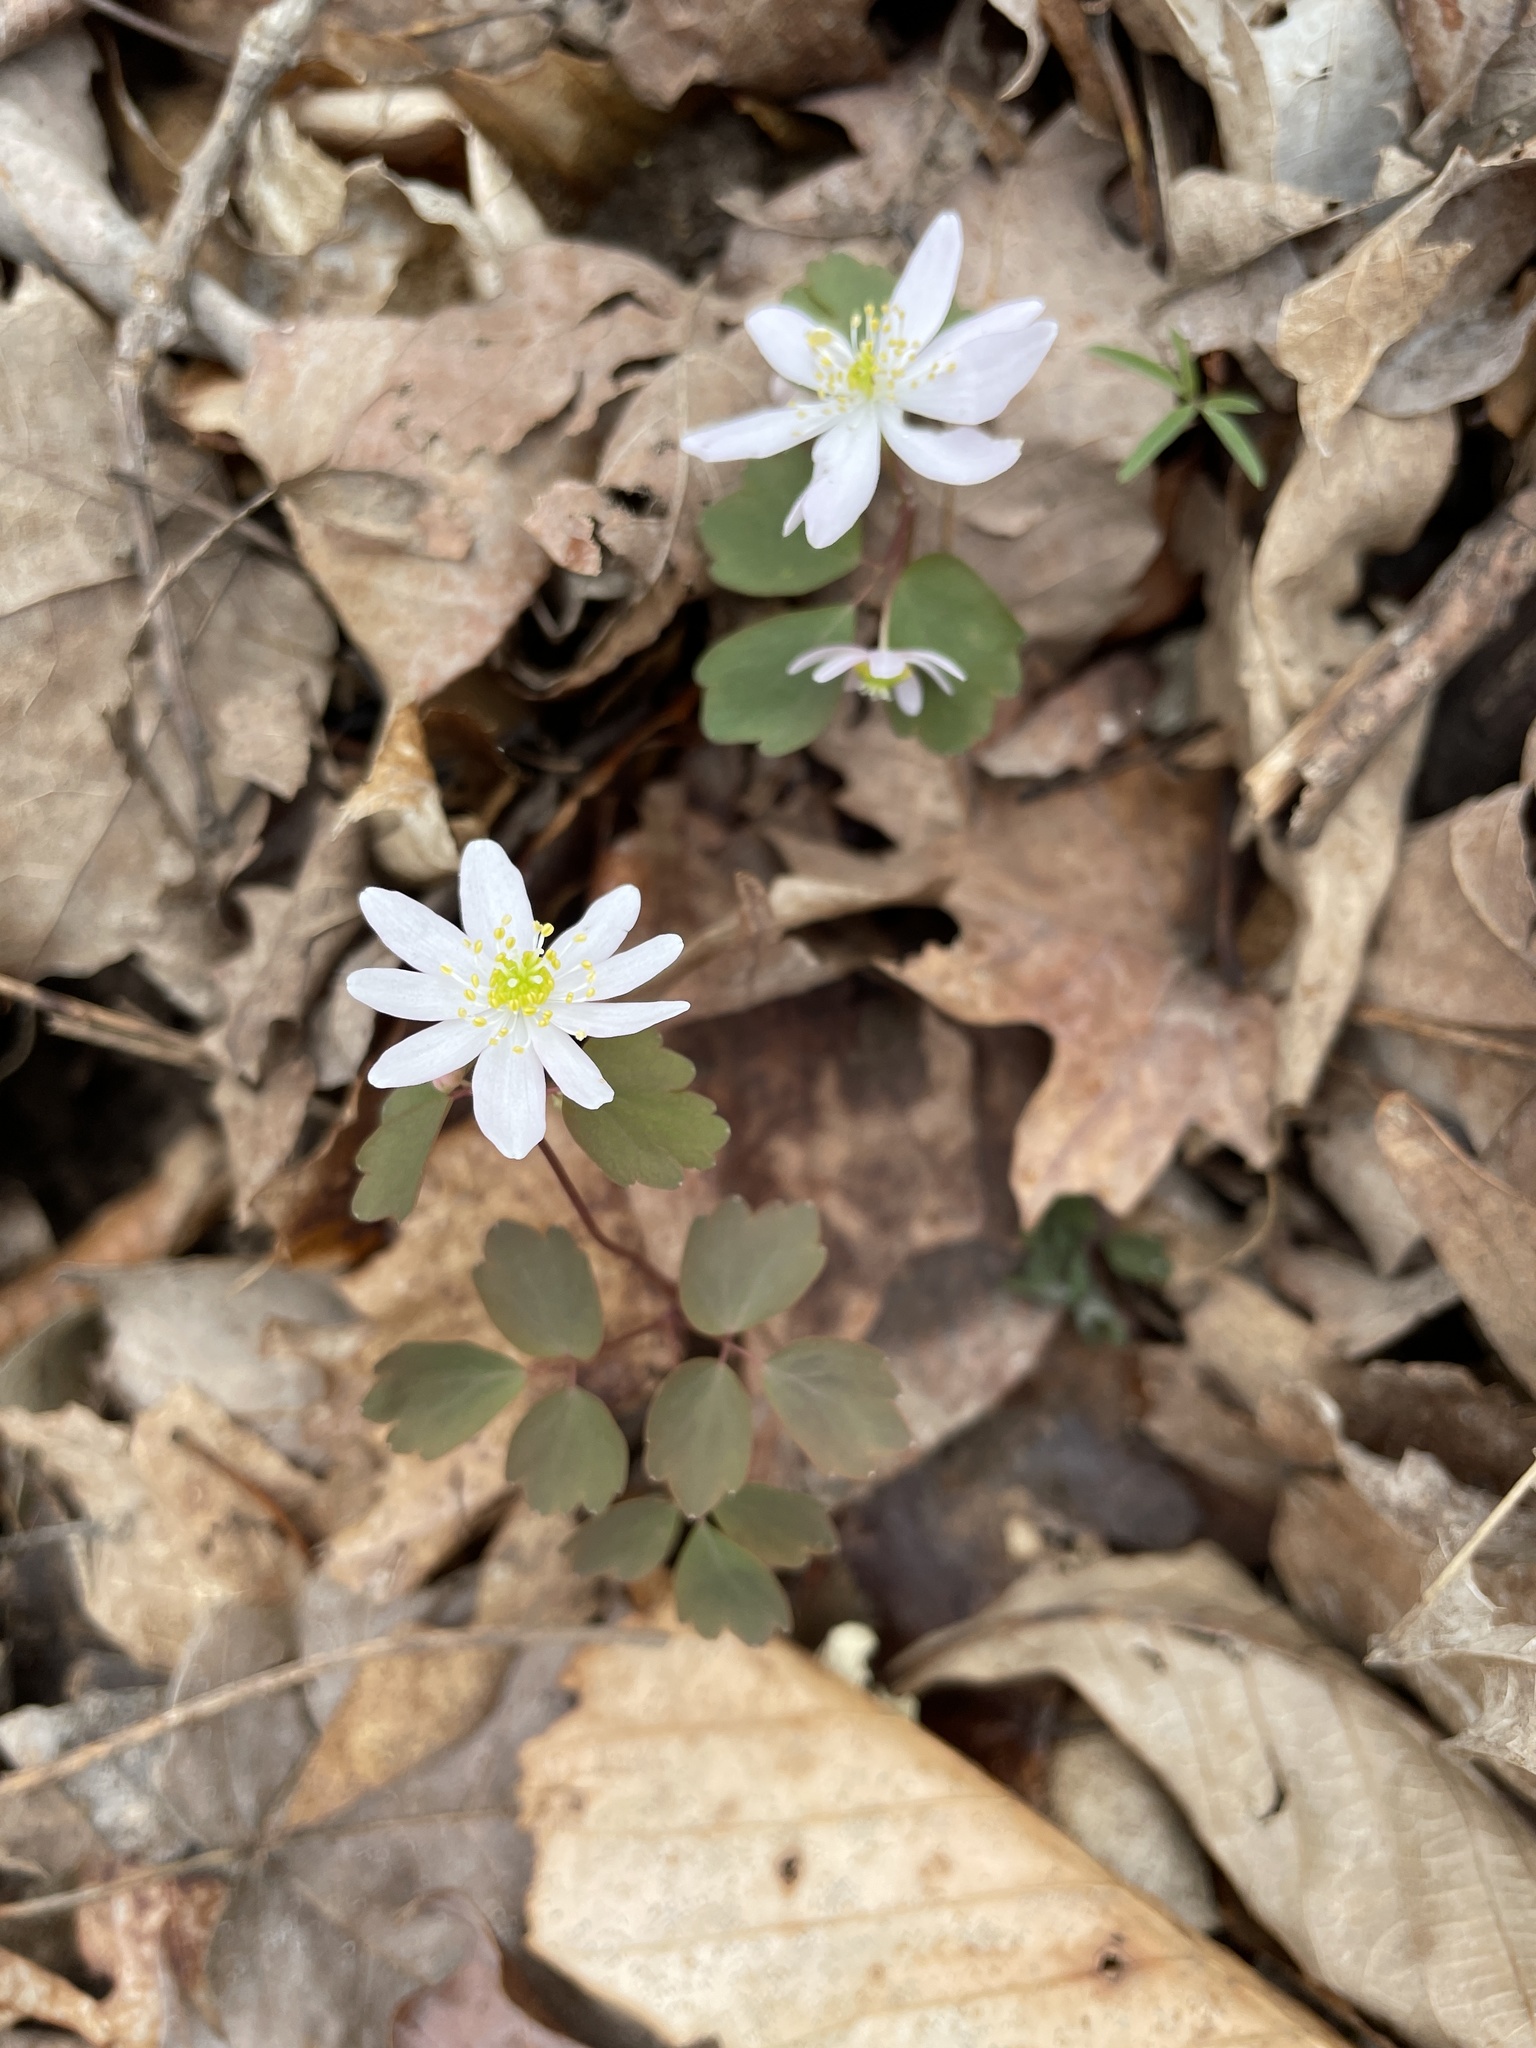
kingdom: Plantae
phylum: Tracheophyta
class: Magnoliopsida
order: Ranunculales
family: Ranunculaceae
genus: Thalictrum
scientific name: Thalictrum thalictroides
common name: Rue-anemone
